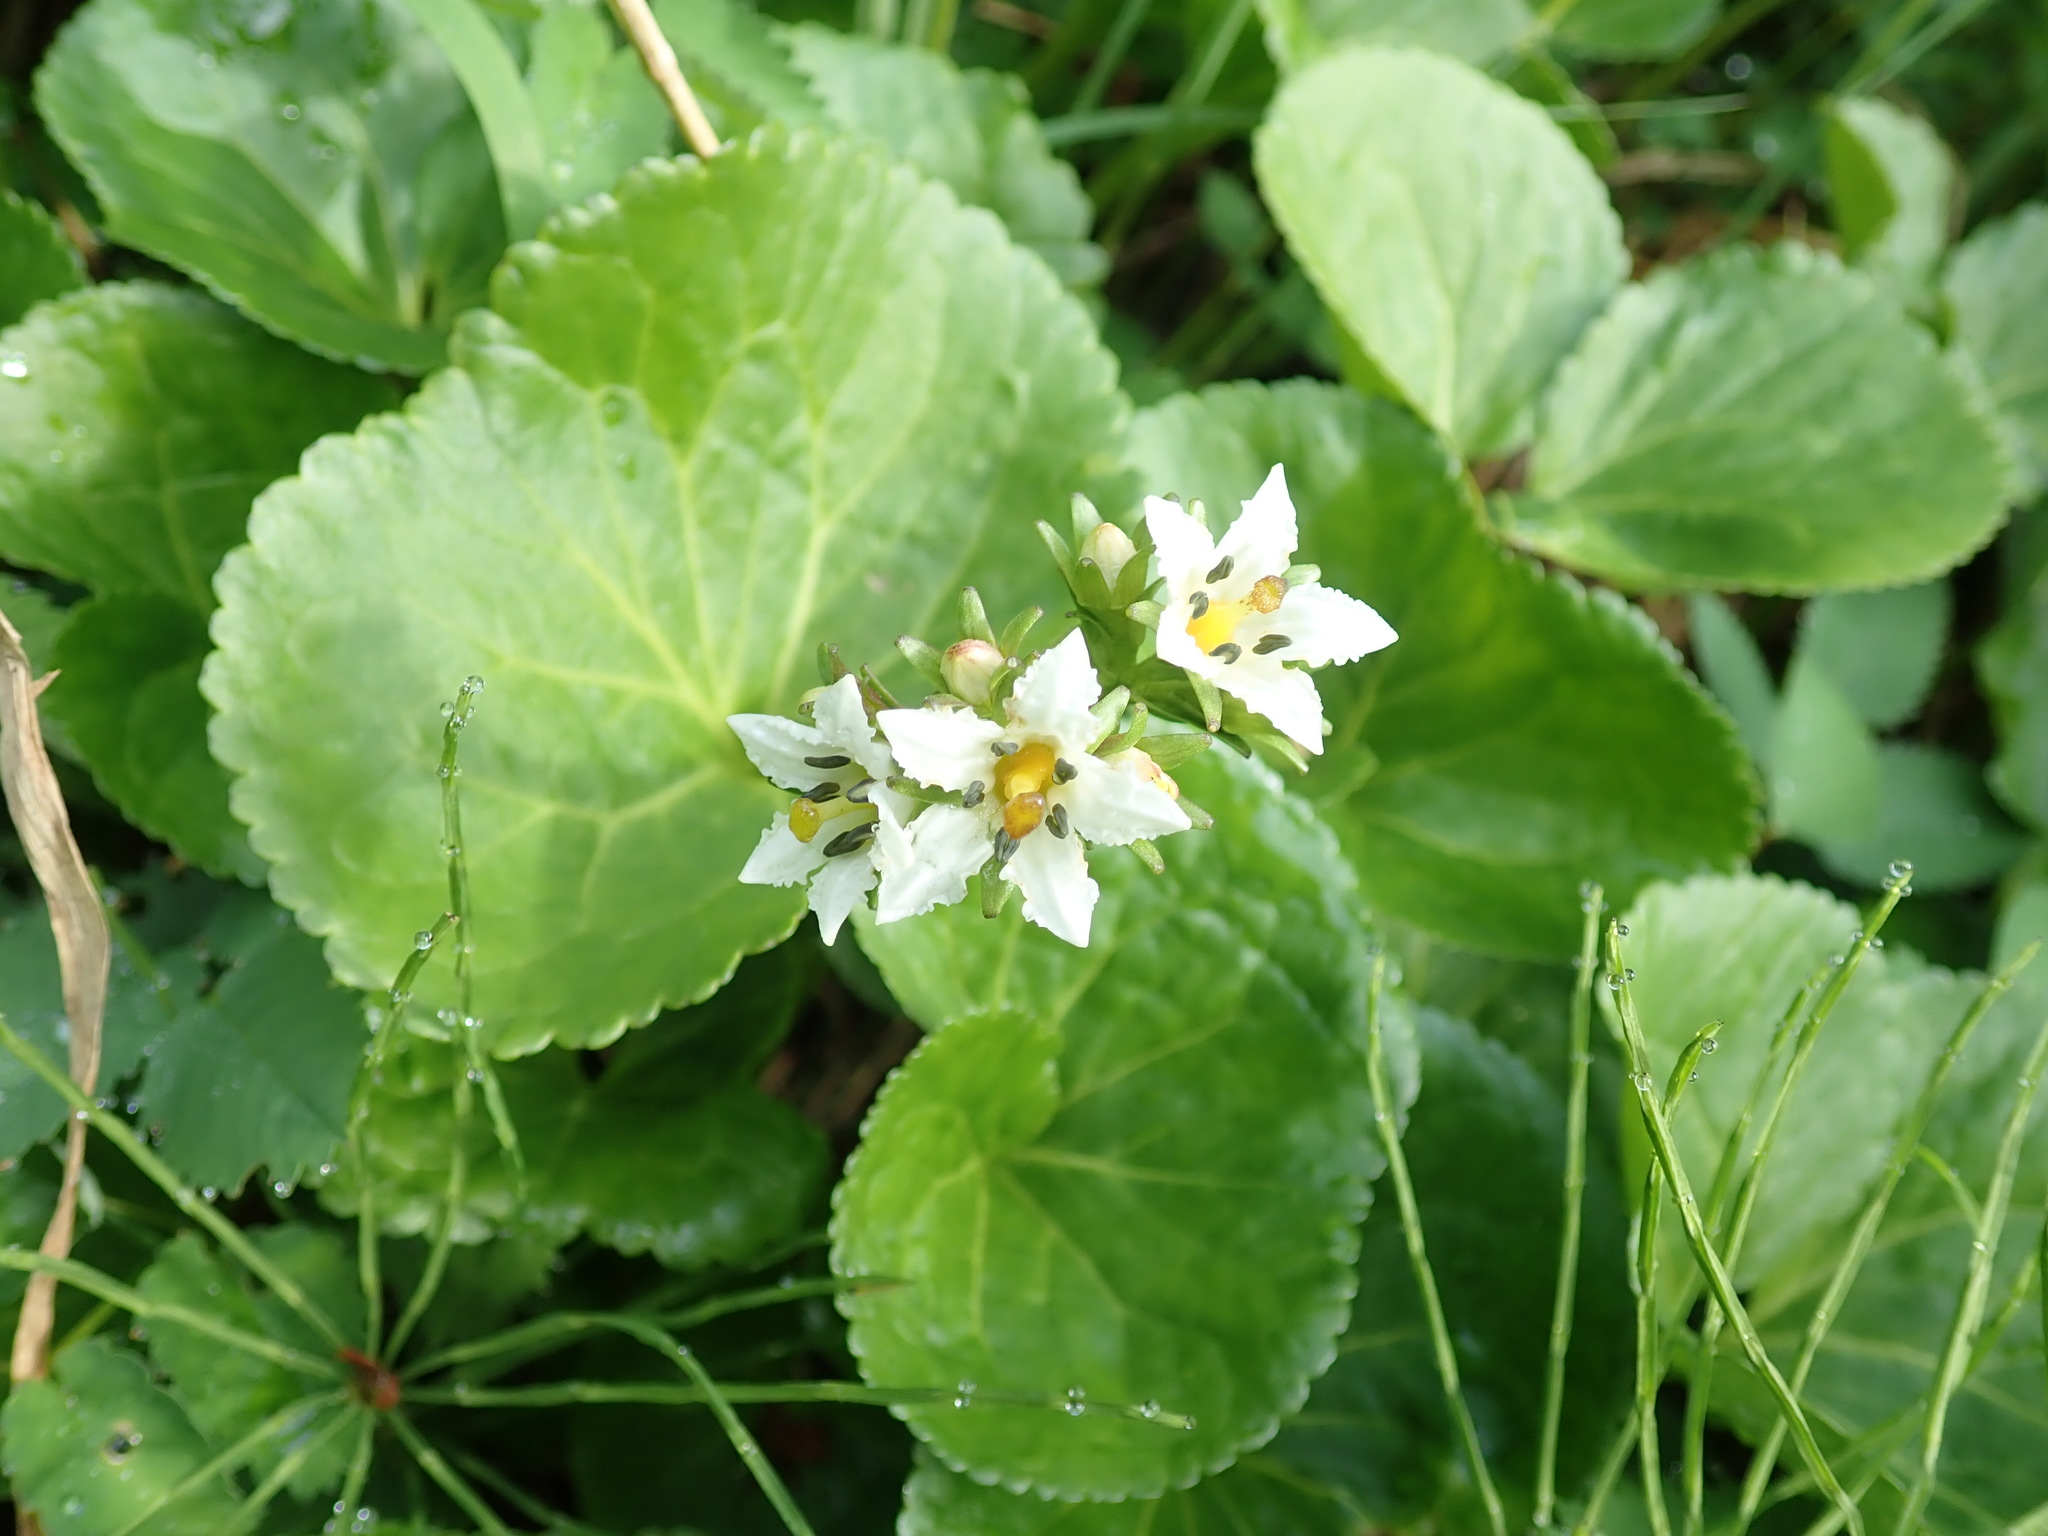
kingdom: Plantae
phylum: Tracheophyta
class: Magnoliopsida
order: Asterales
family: Menyanthaceae
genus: Nephrophyllidium
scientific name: Nephrophyllidium crista-galli
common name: Deer-cabbage
